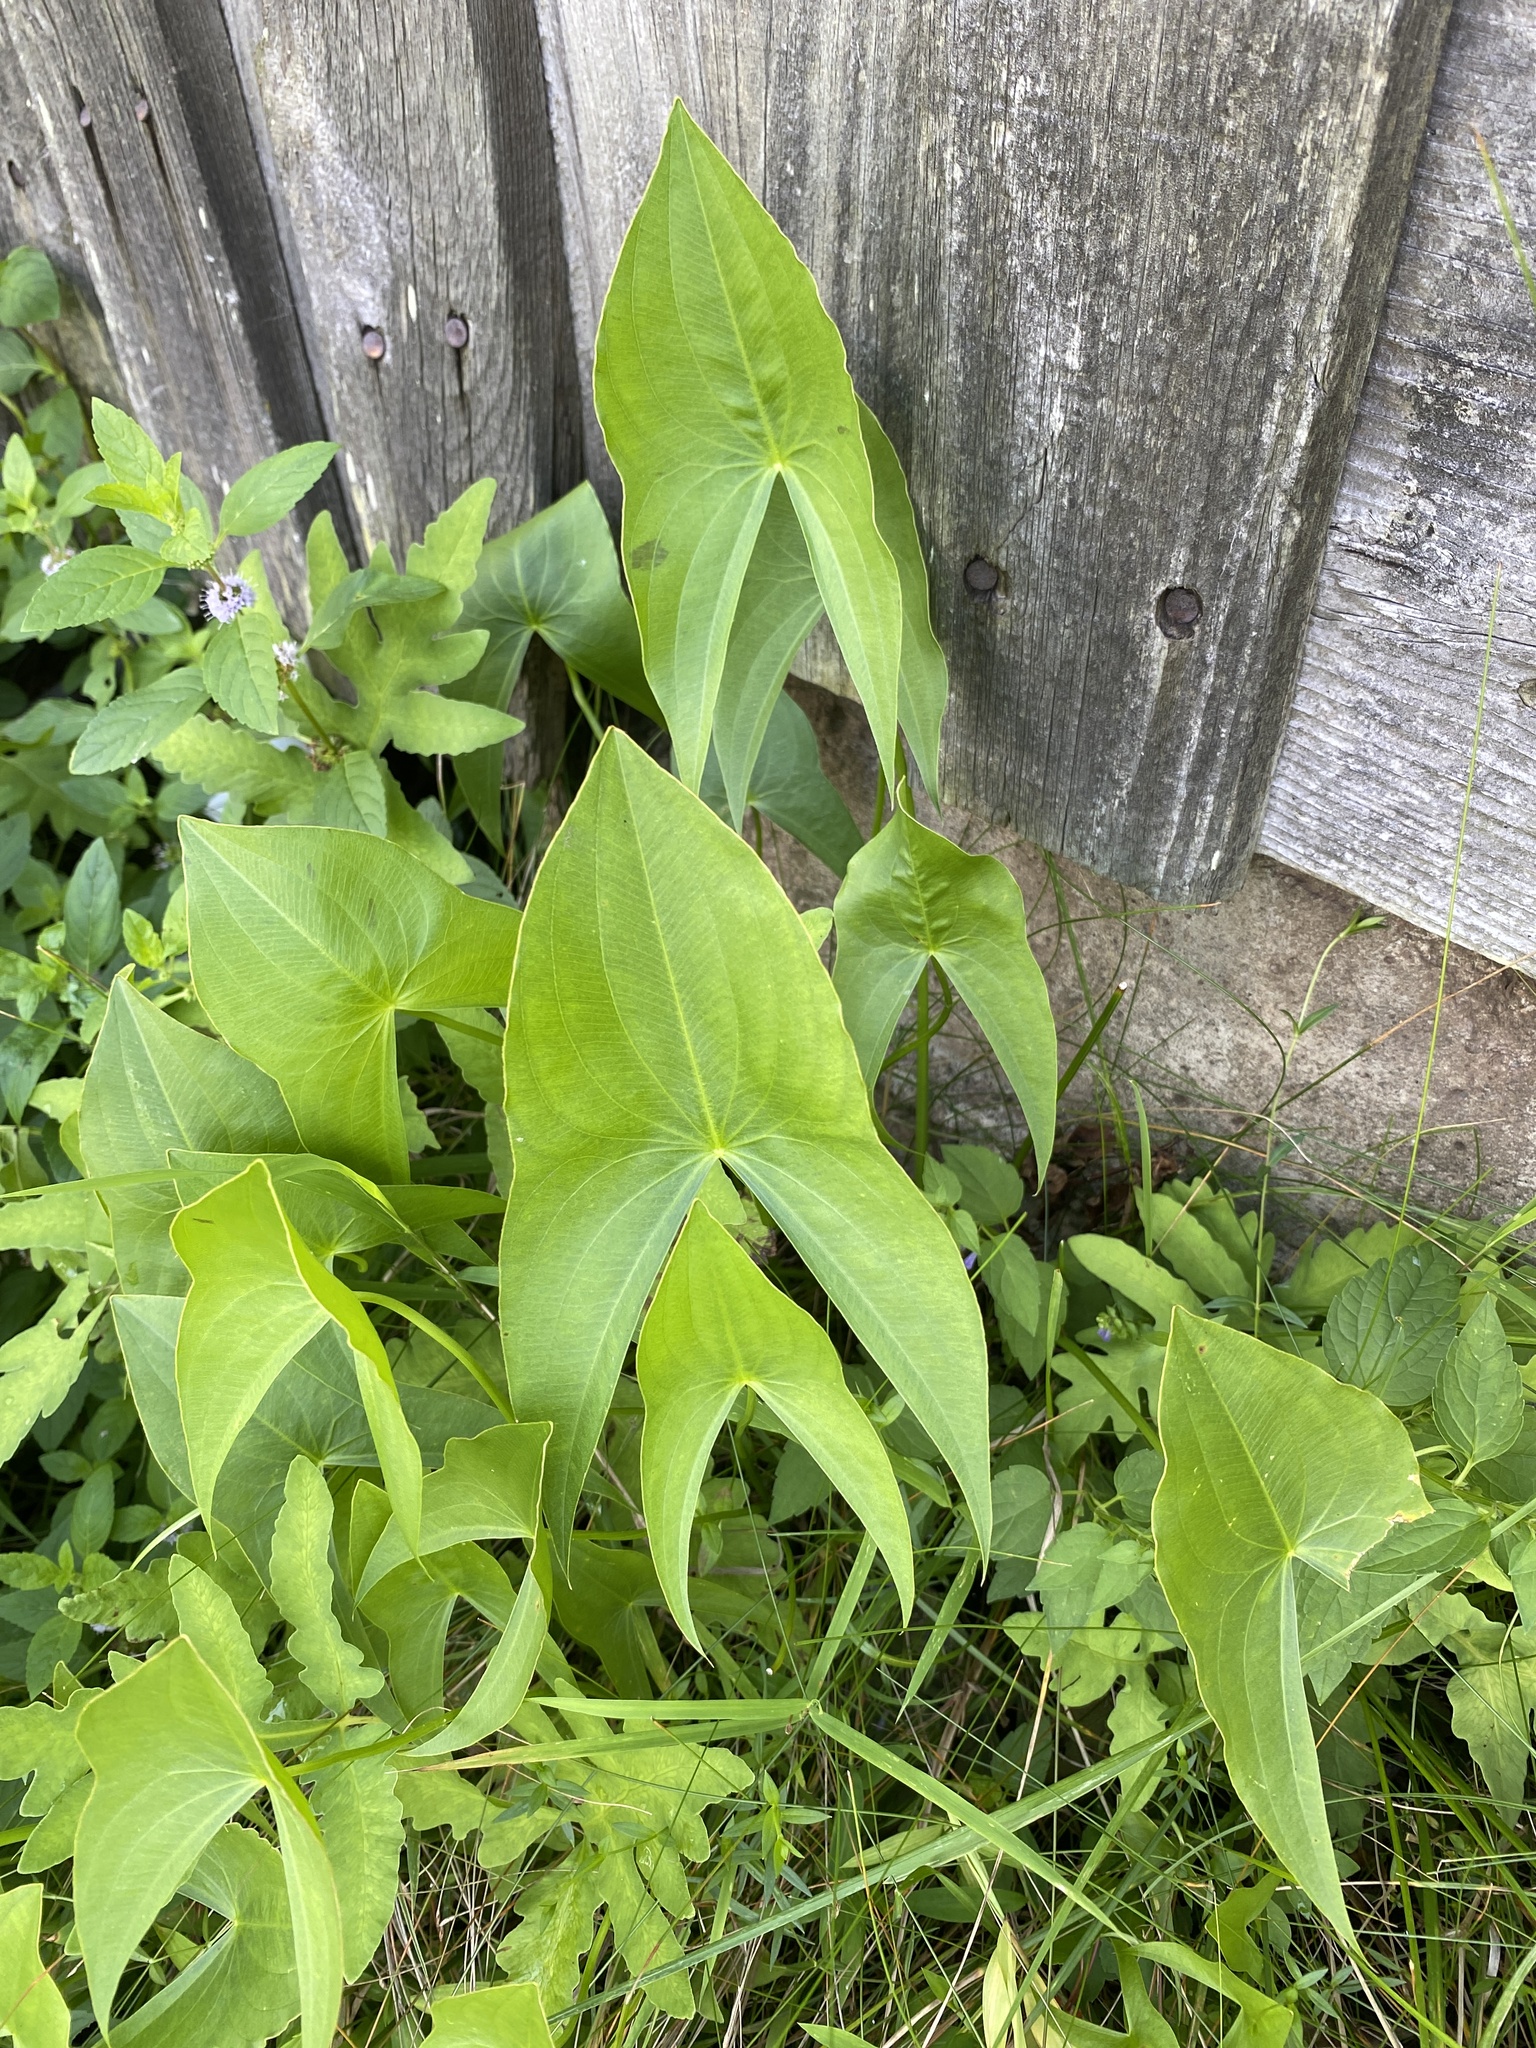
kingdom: Plantae
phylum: Tracheophyta
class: Liliopsida
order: Alismatales
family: Alismataceae
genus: Sagittaria
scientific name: Sagittaria latifolia
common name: Duck-potato
